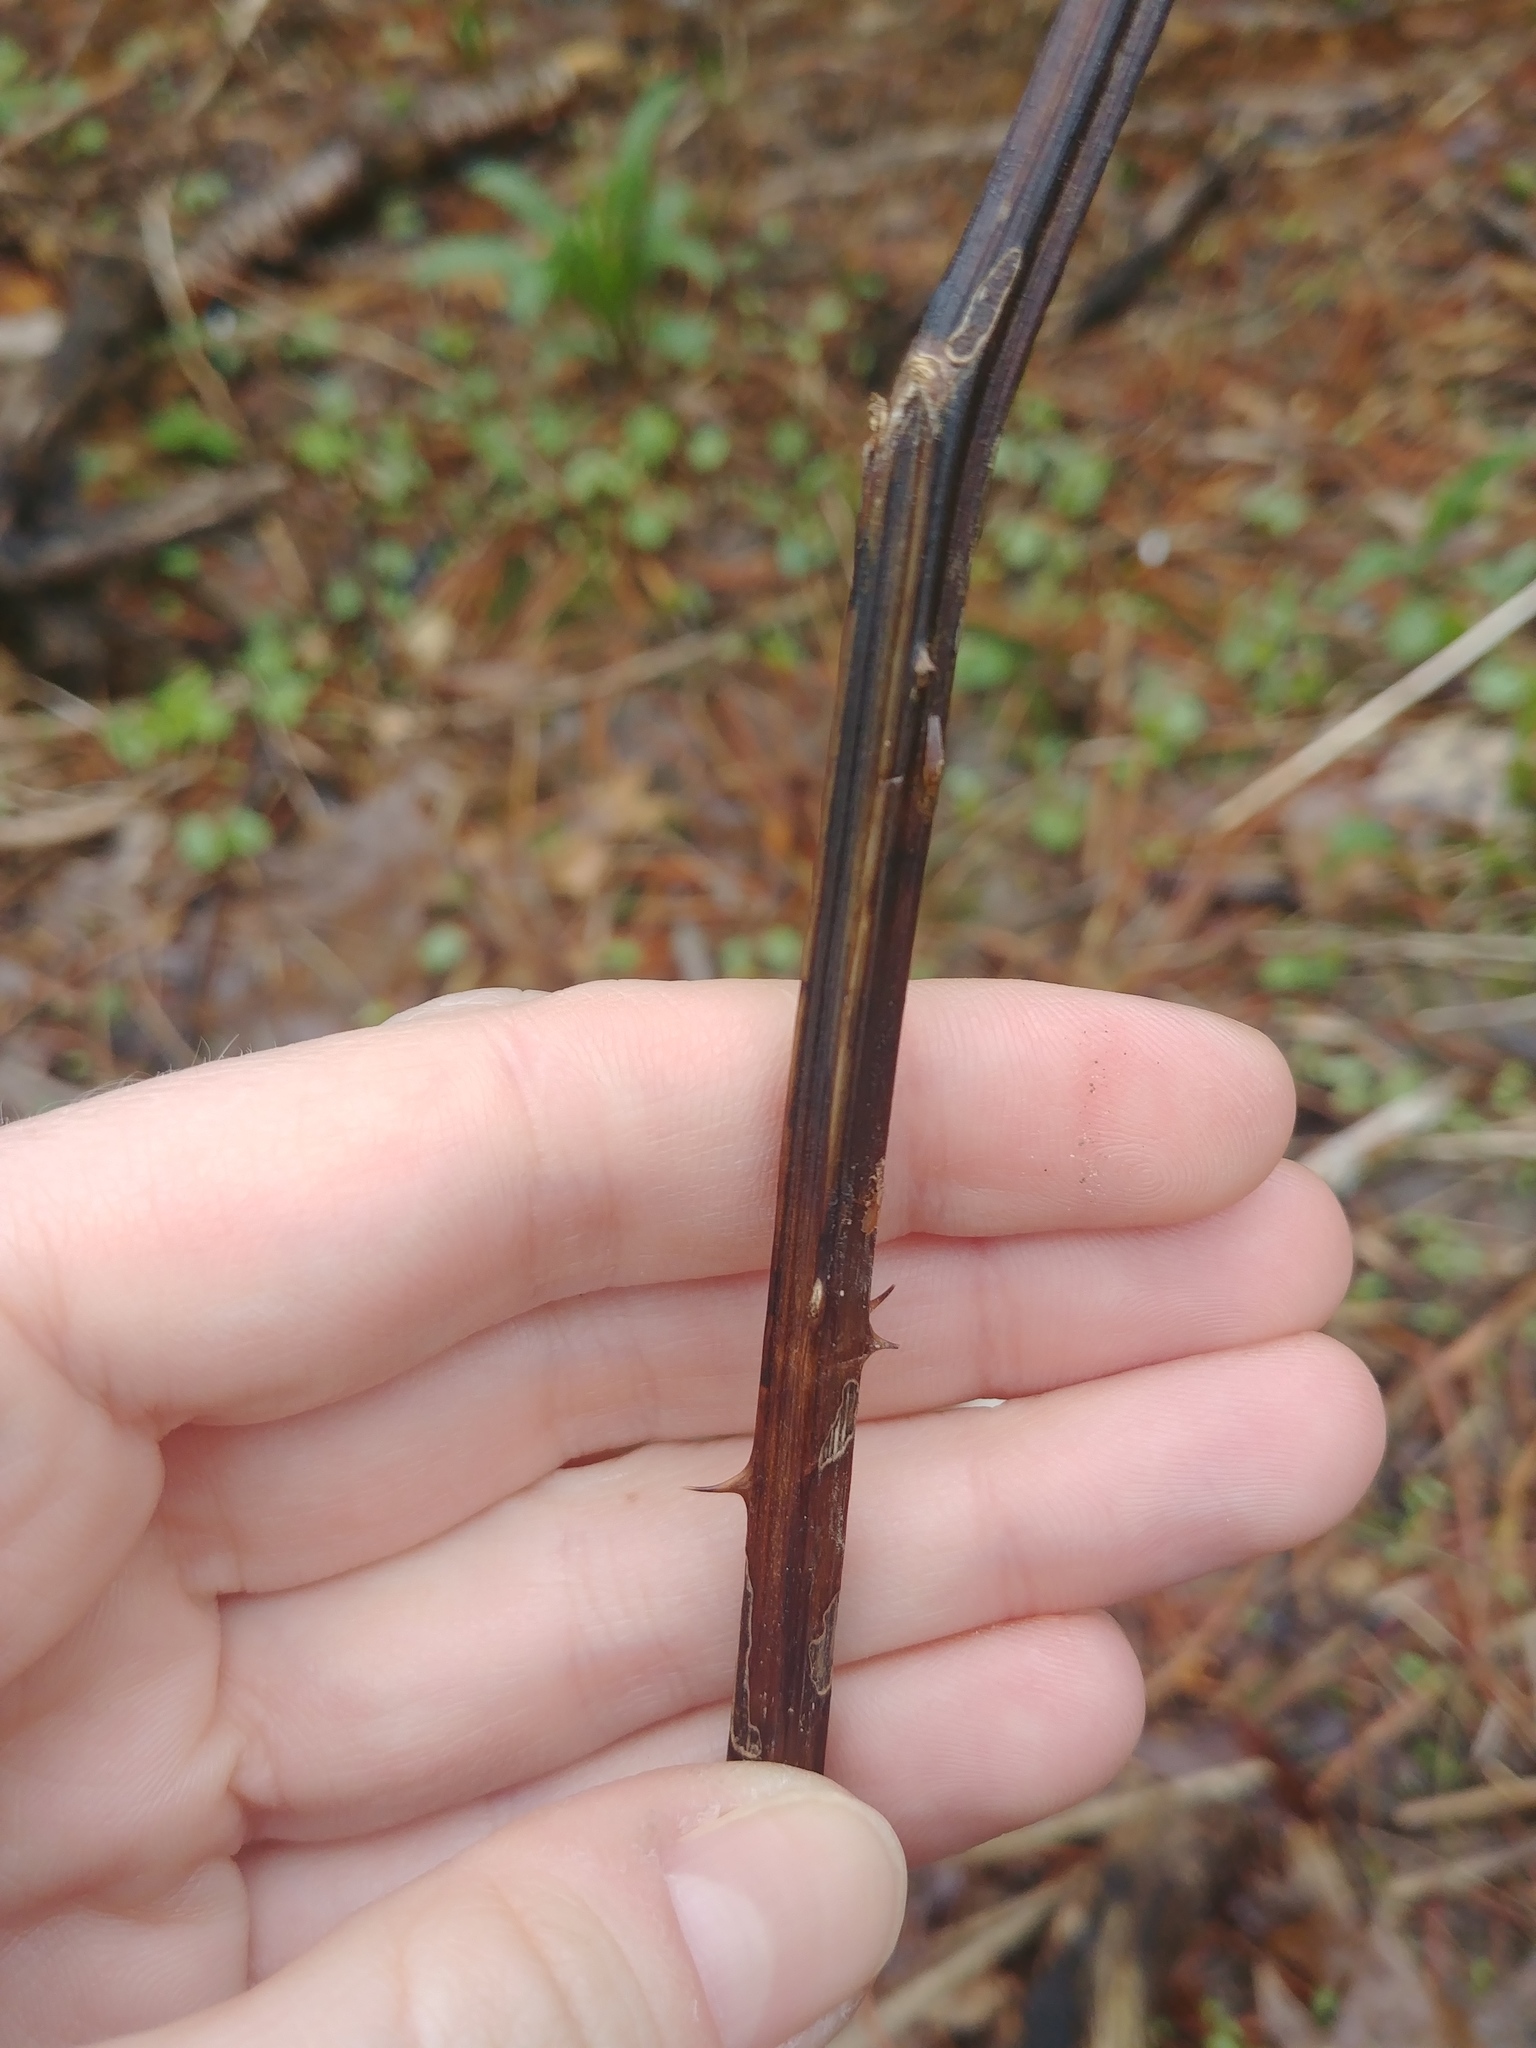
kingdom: Animalia
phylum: Arthropoda
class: Insecta
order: Hymenoptera
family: Cynipidae
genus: Diastrophus
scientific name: Diastrophus
